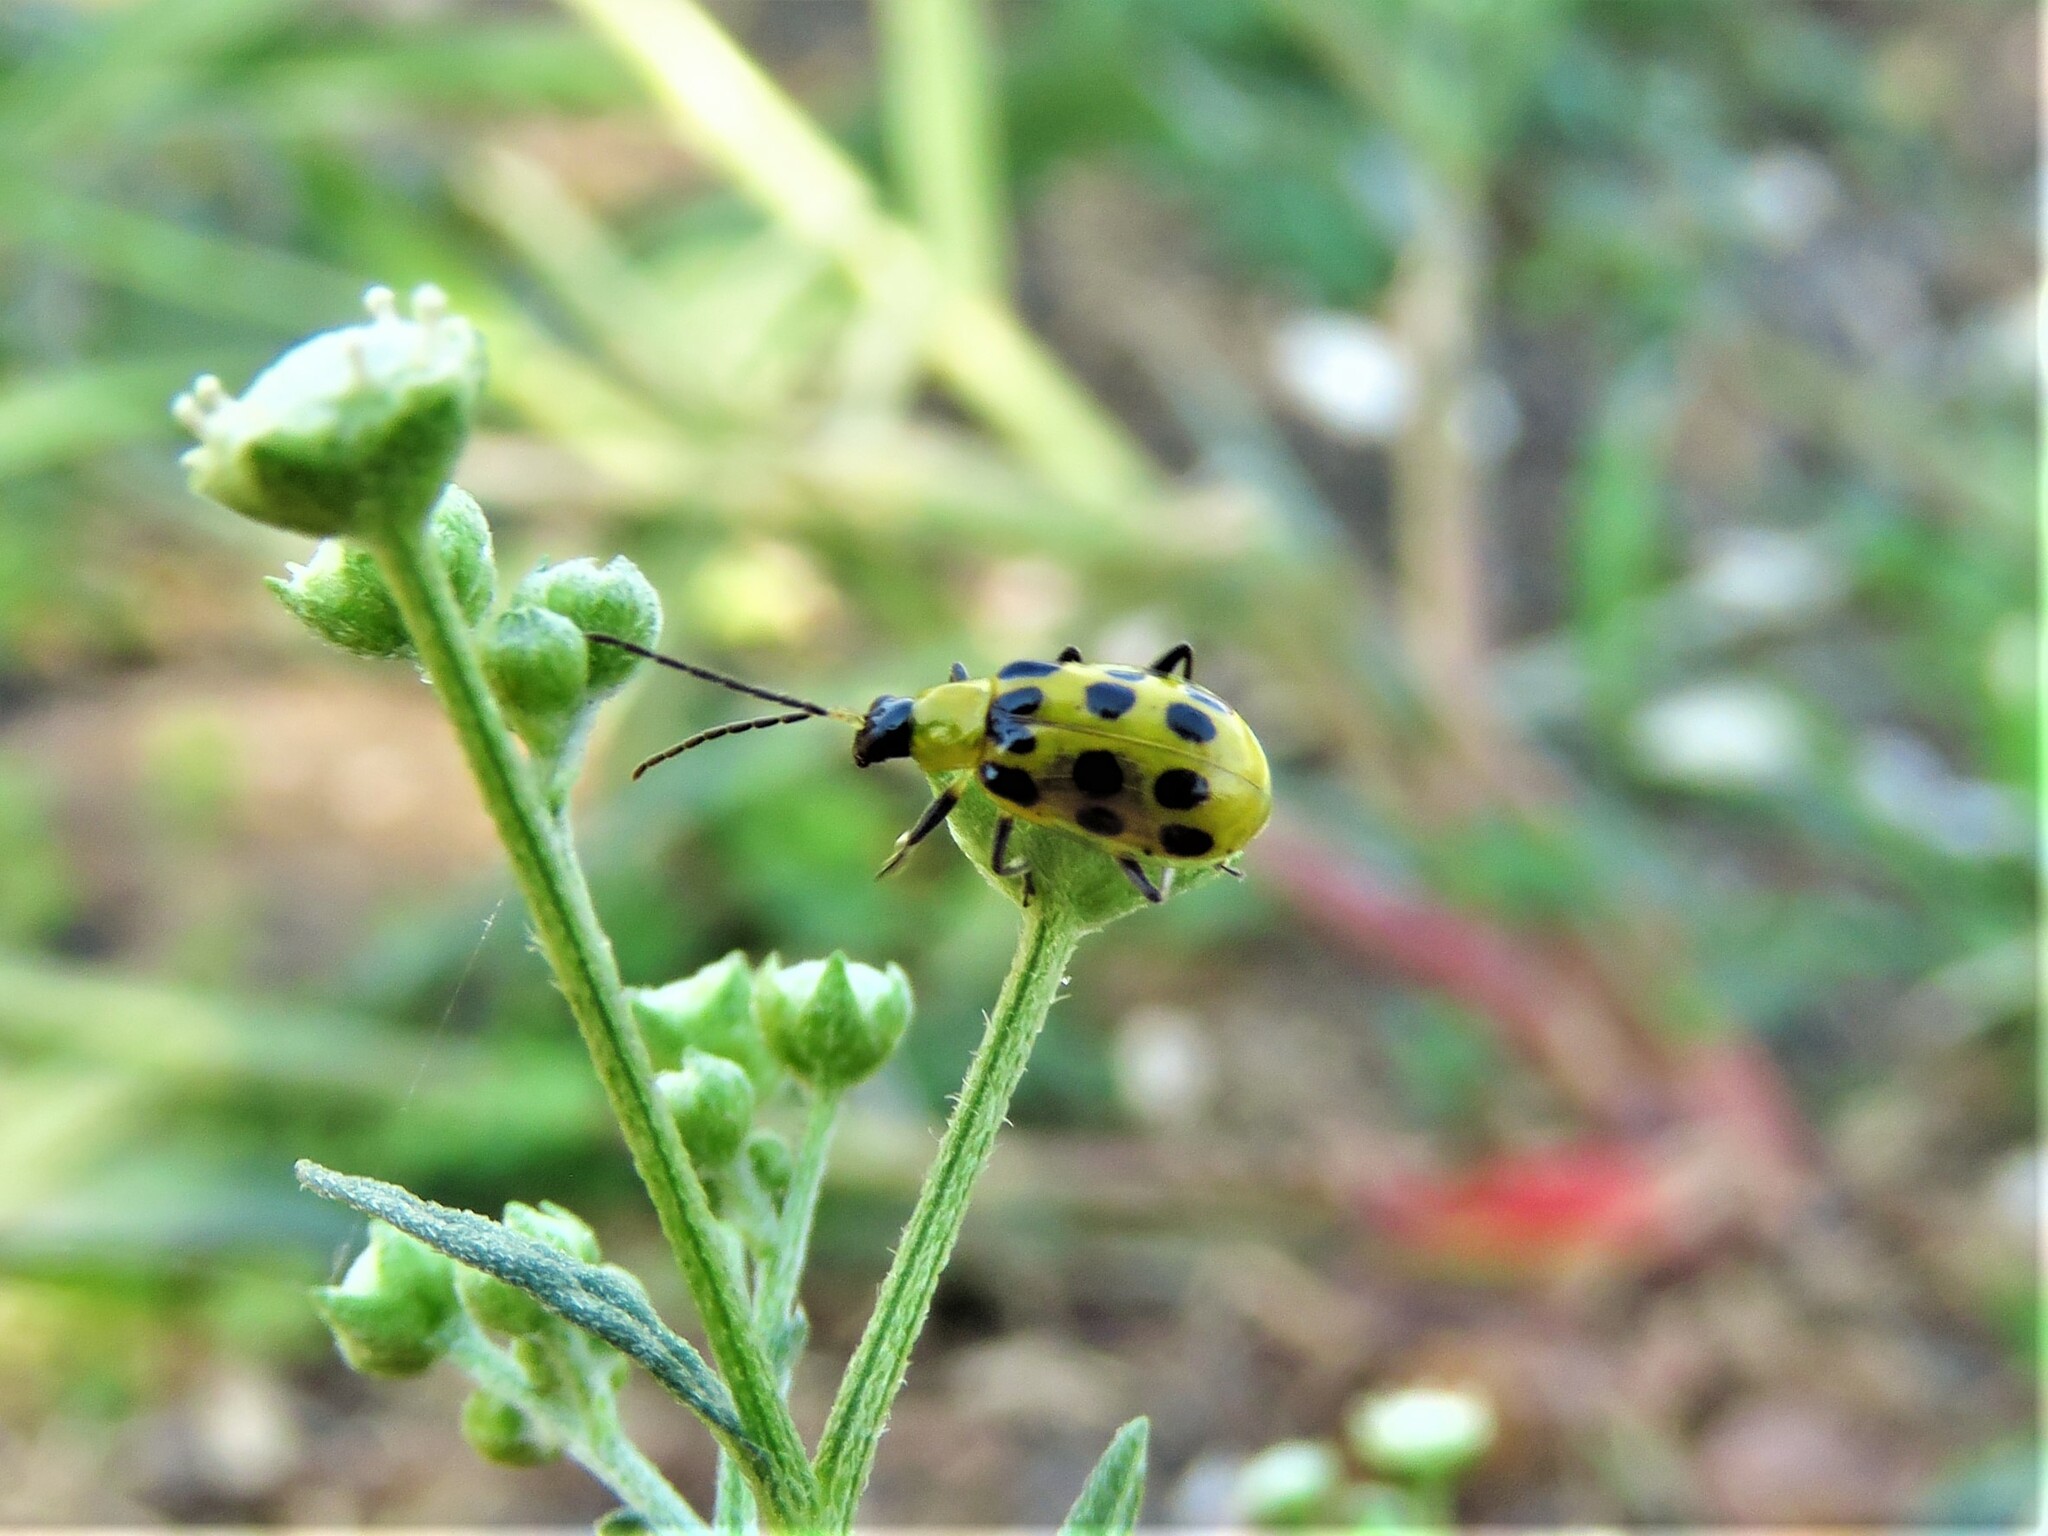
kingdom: Animalia
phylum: Arthropoda
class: Insecta
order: Coleoptera
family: Chrysomelidae
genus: Diabrotica
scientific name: Diabrotica undecimpunctata
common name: Spotted cucumber beetle
